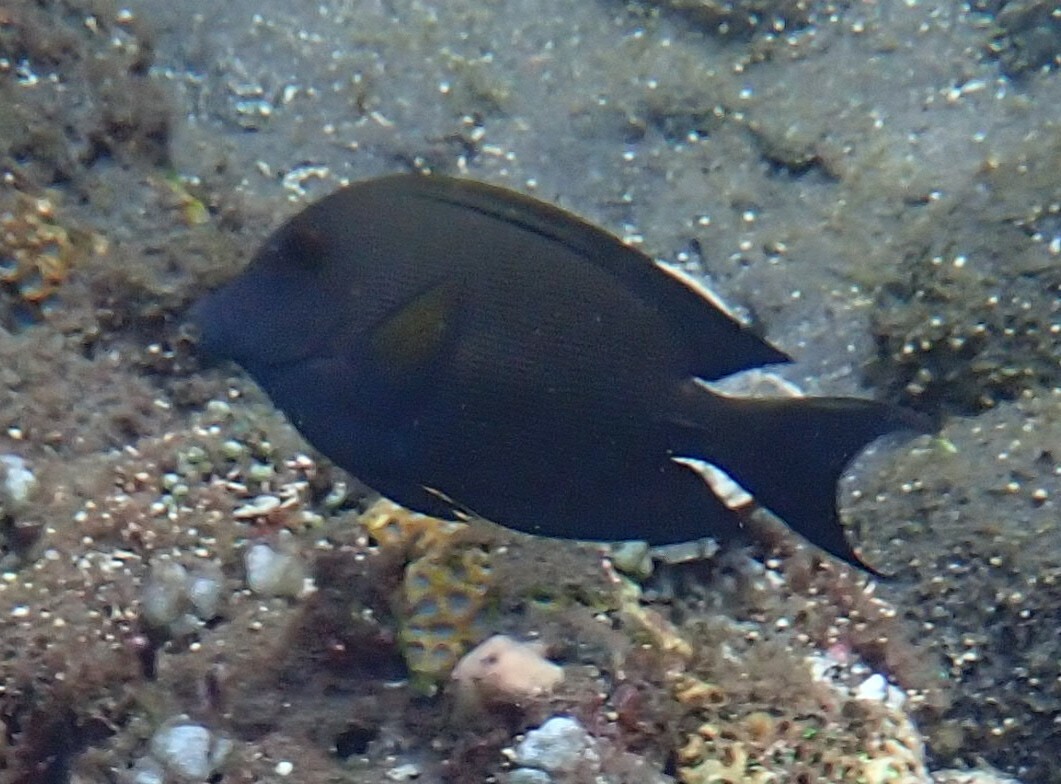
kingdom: Animalia
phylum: Chordata
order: Perciformes
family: Acanthuridae
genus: Ctenochaetus
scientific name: Ctenochaetus striatus
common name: Bristle-toothed surgeonfish
